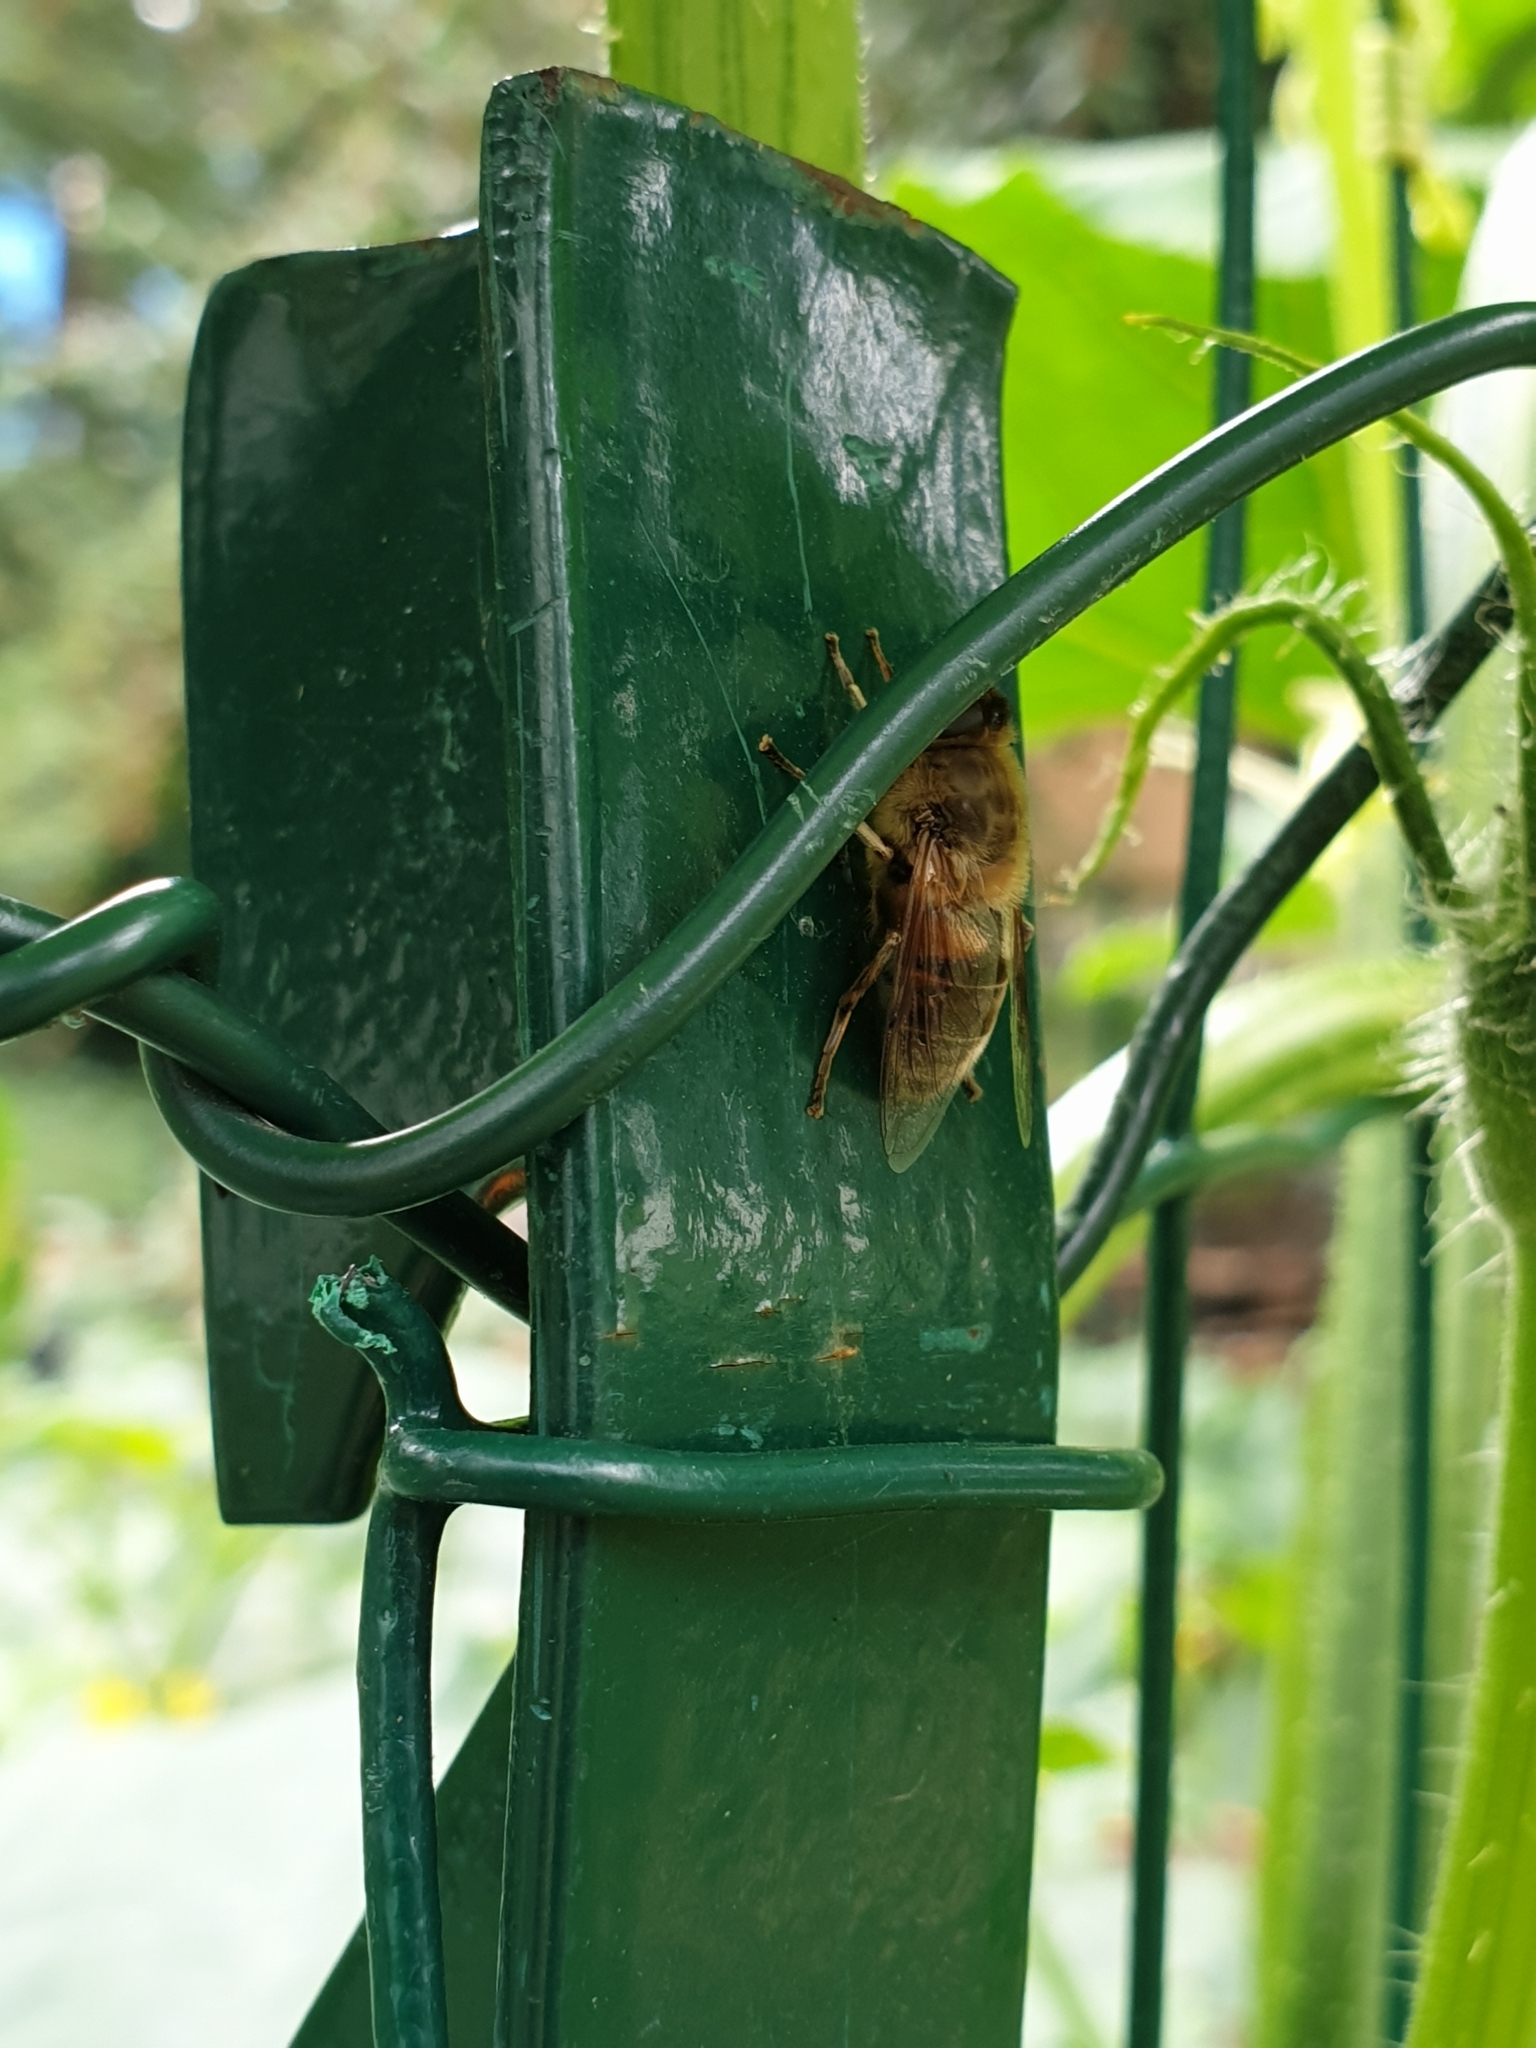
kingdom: Animalia
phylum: Arthropoda
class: Insecta
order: Diptera
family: Syrphidae
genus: Eristalis
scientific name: Eristalis tenax
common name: Drone fly
